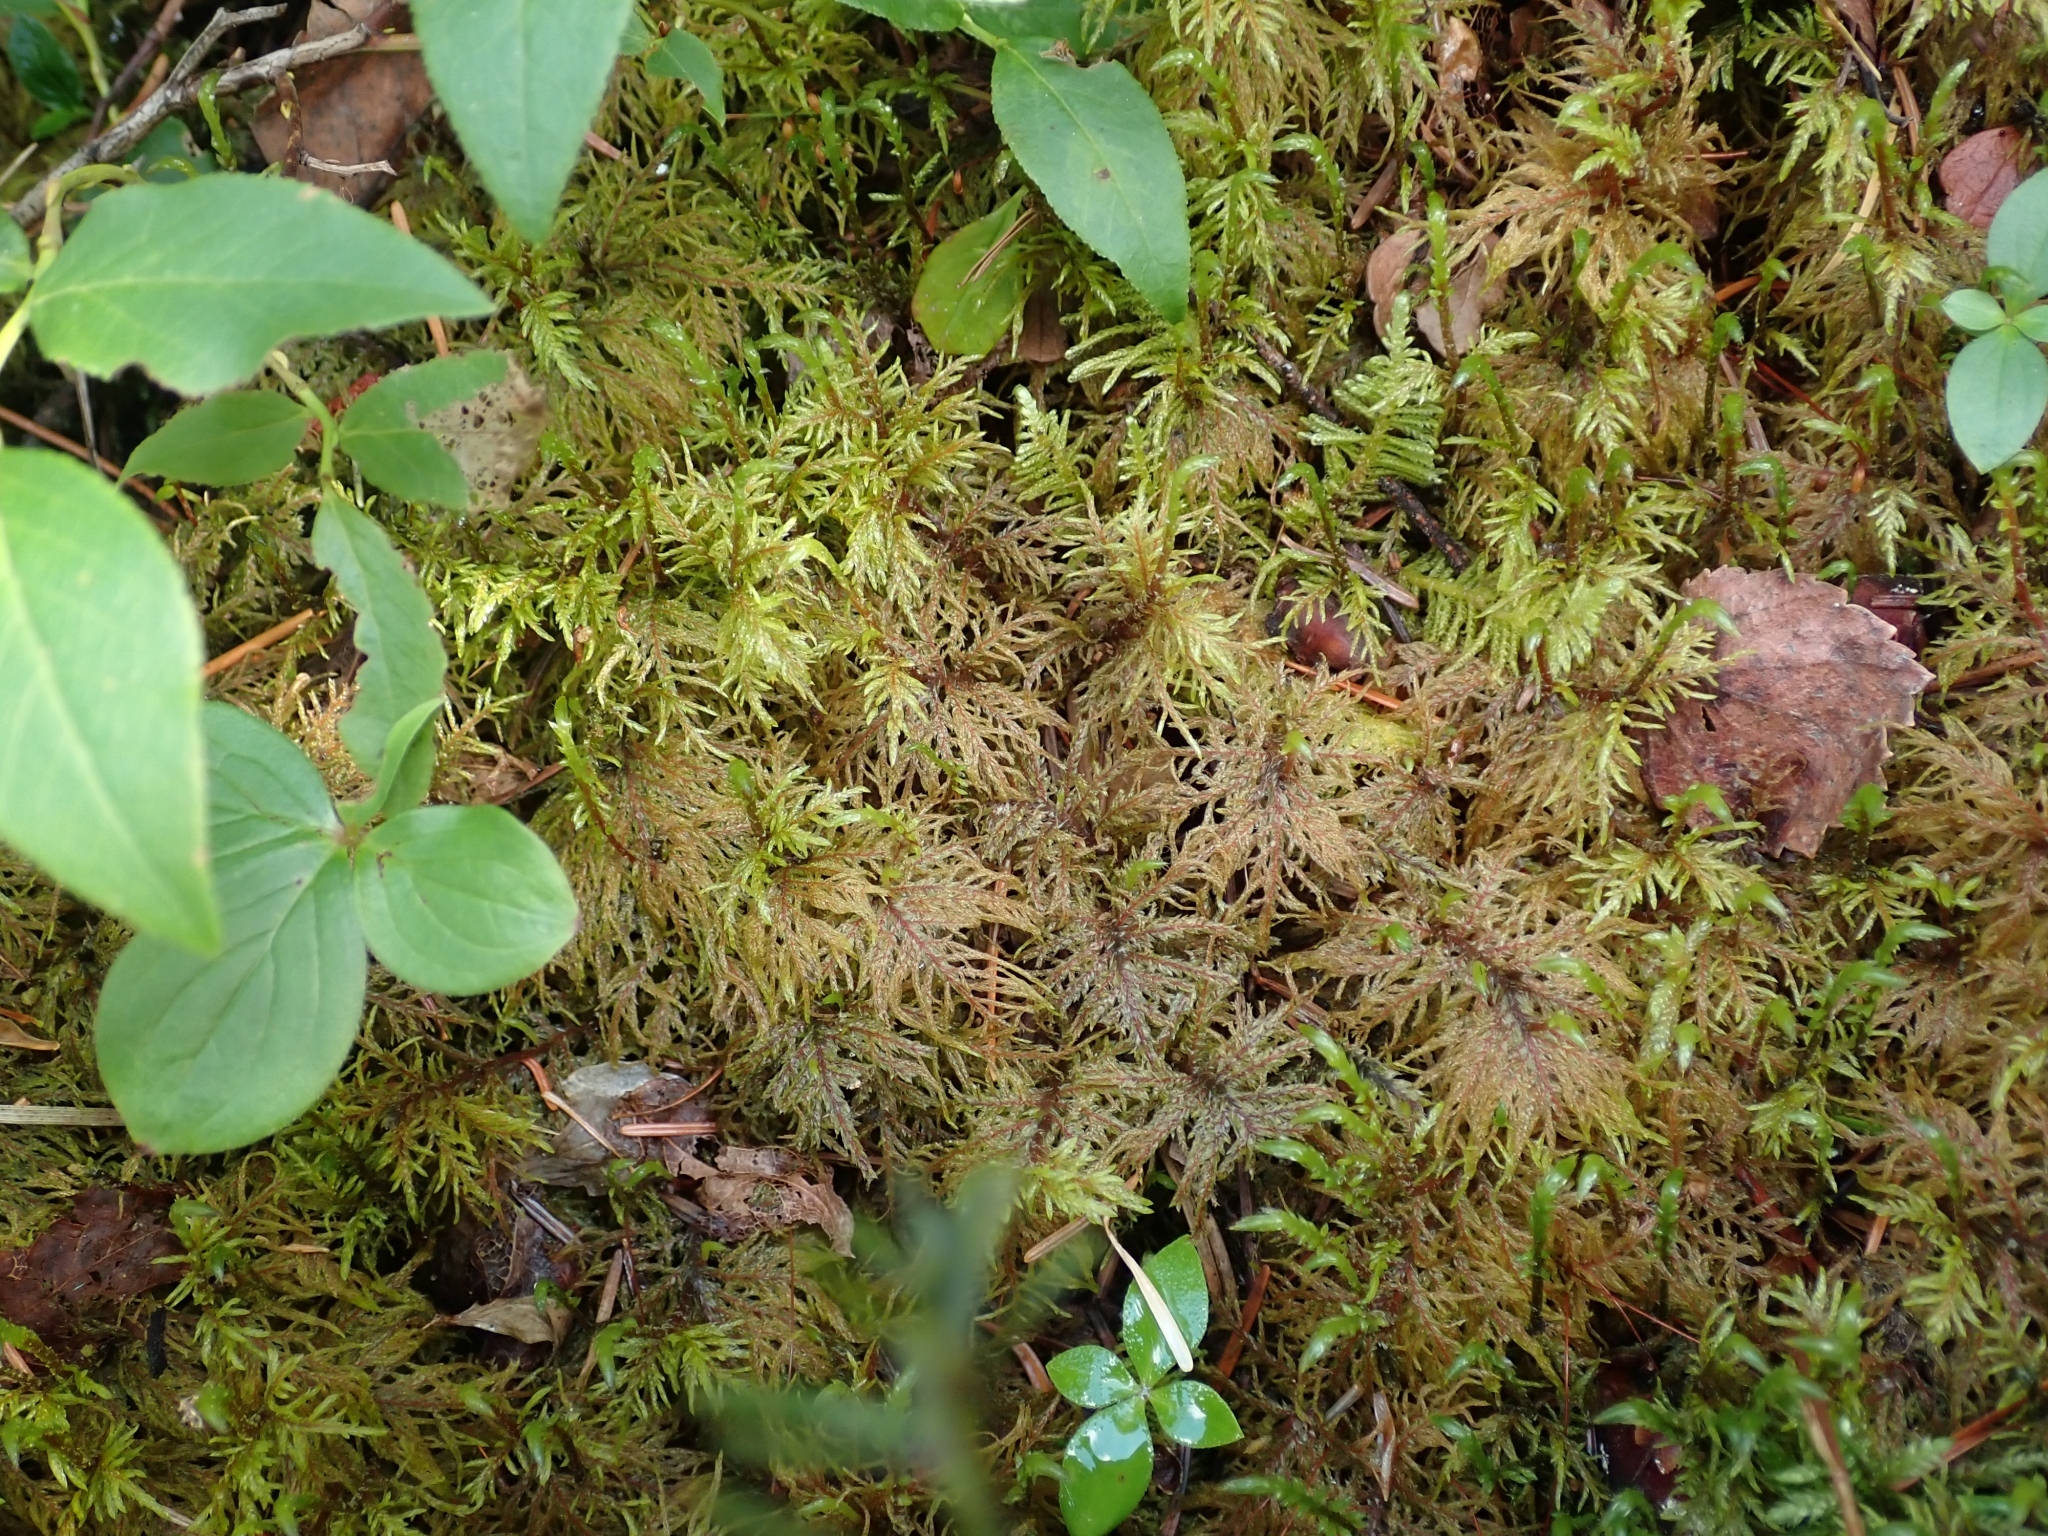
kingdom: Plantae
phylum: Bryophyta
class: Bryopsida
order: Hypnales
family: Hylocomiaceae
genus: Hylocomium
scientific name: Hylocomium splendens
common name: Stairstep moss
